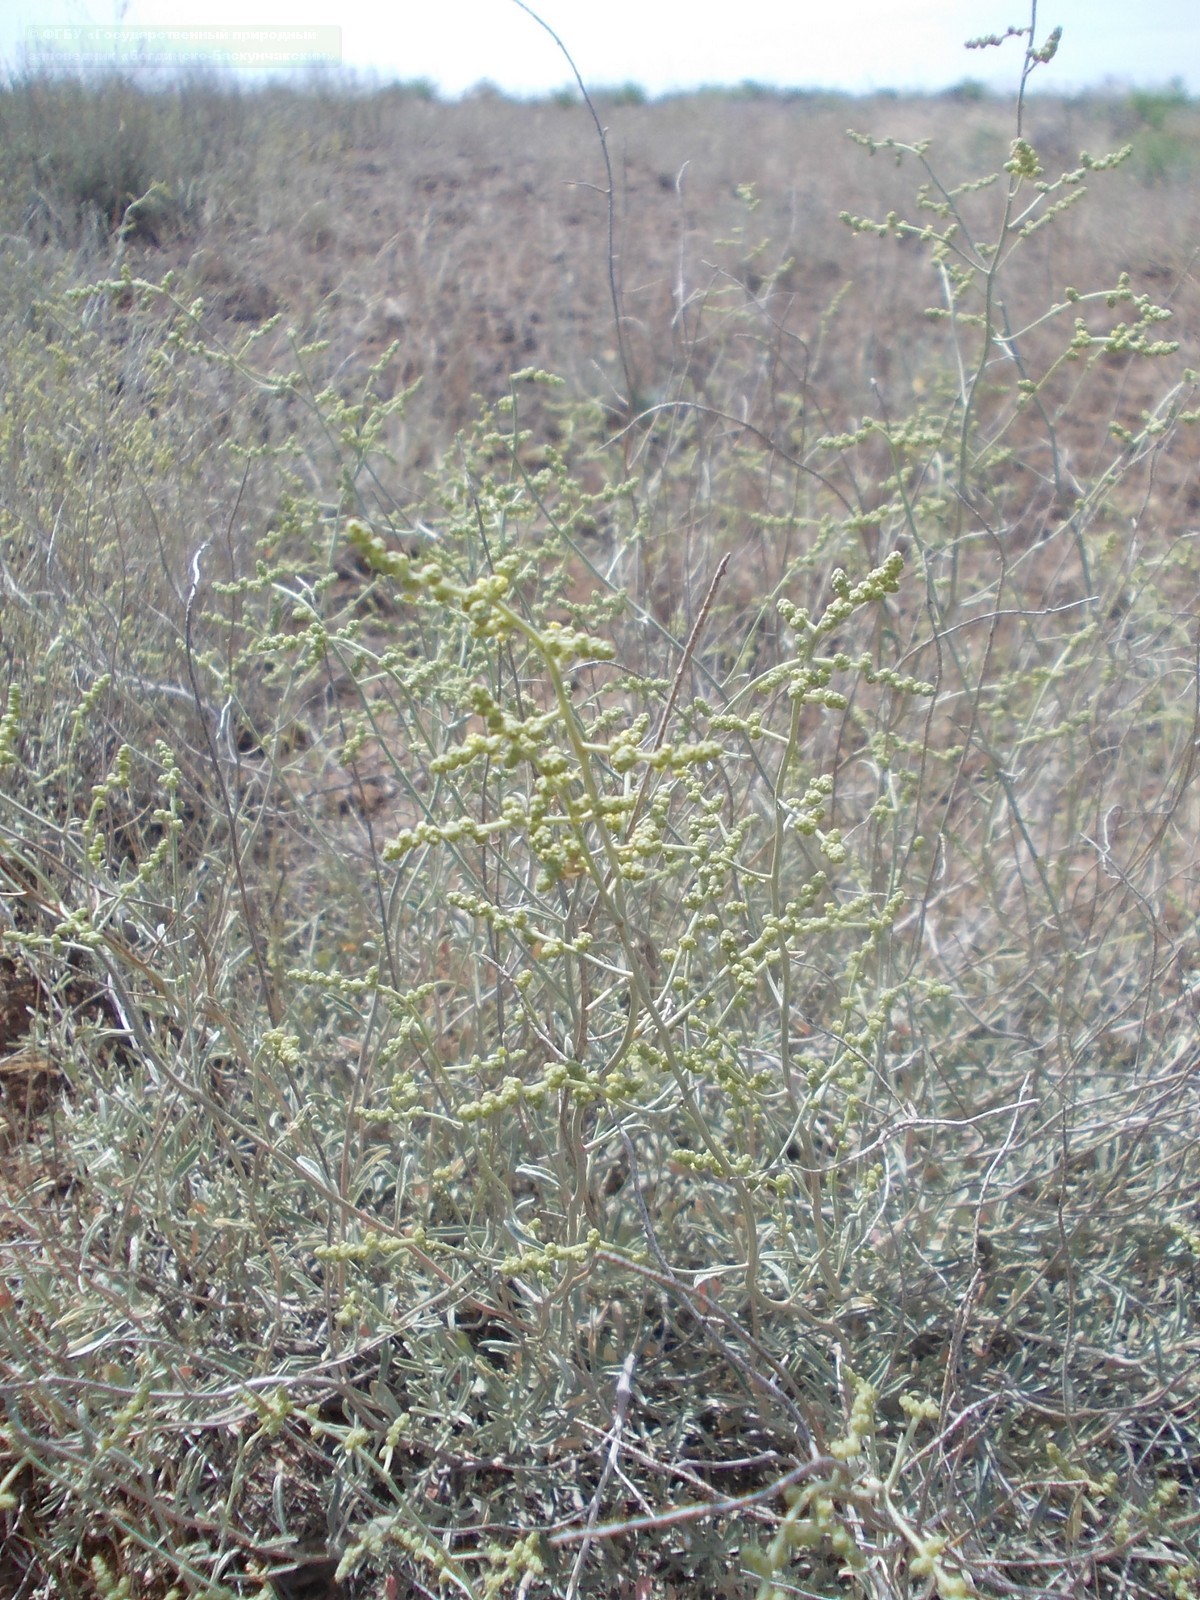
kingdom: Plantae
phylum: Tracheophyta
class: Magnoliopsida
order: Caryophyllales
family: Amaranthaceae
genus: Atriplex
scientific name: Atriplex cana
